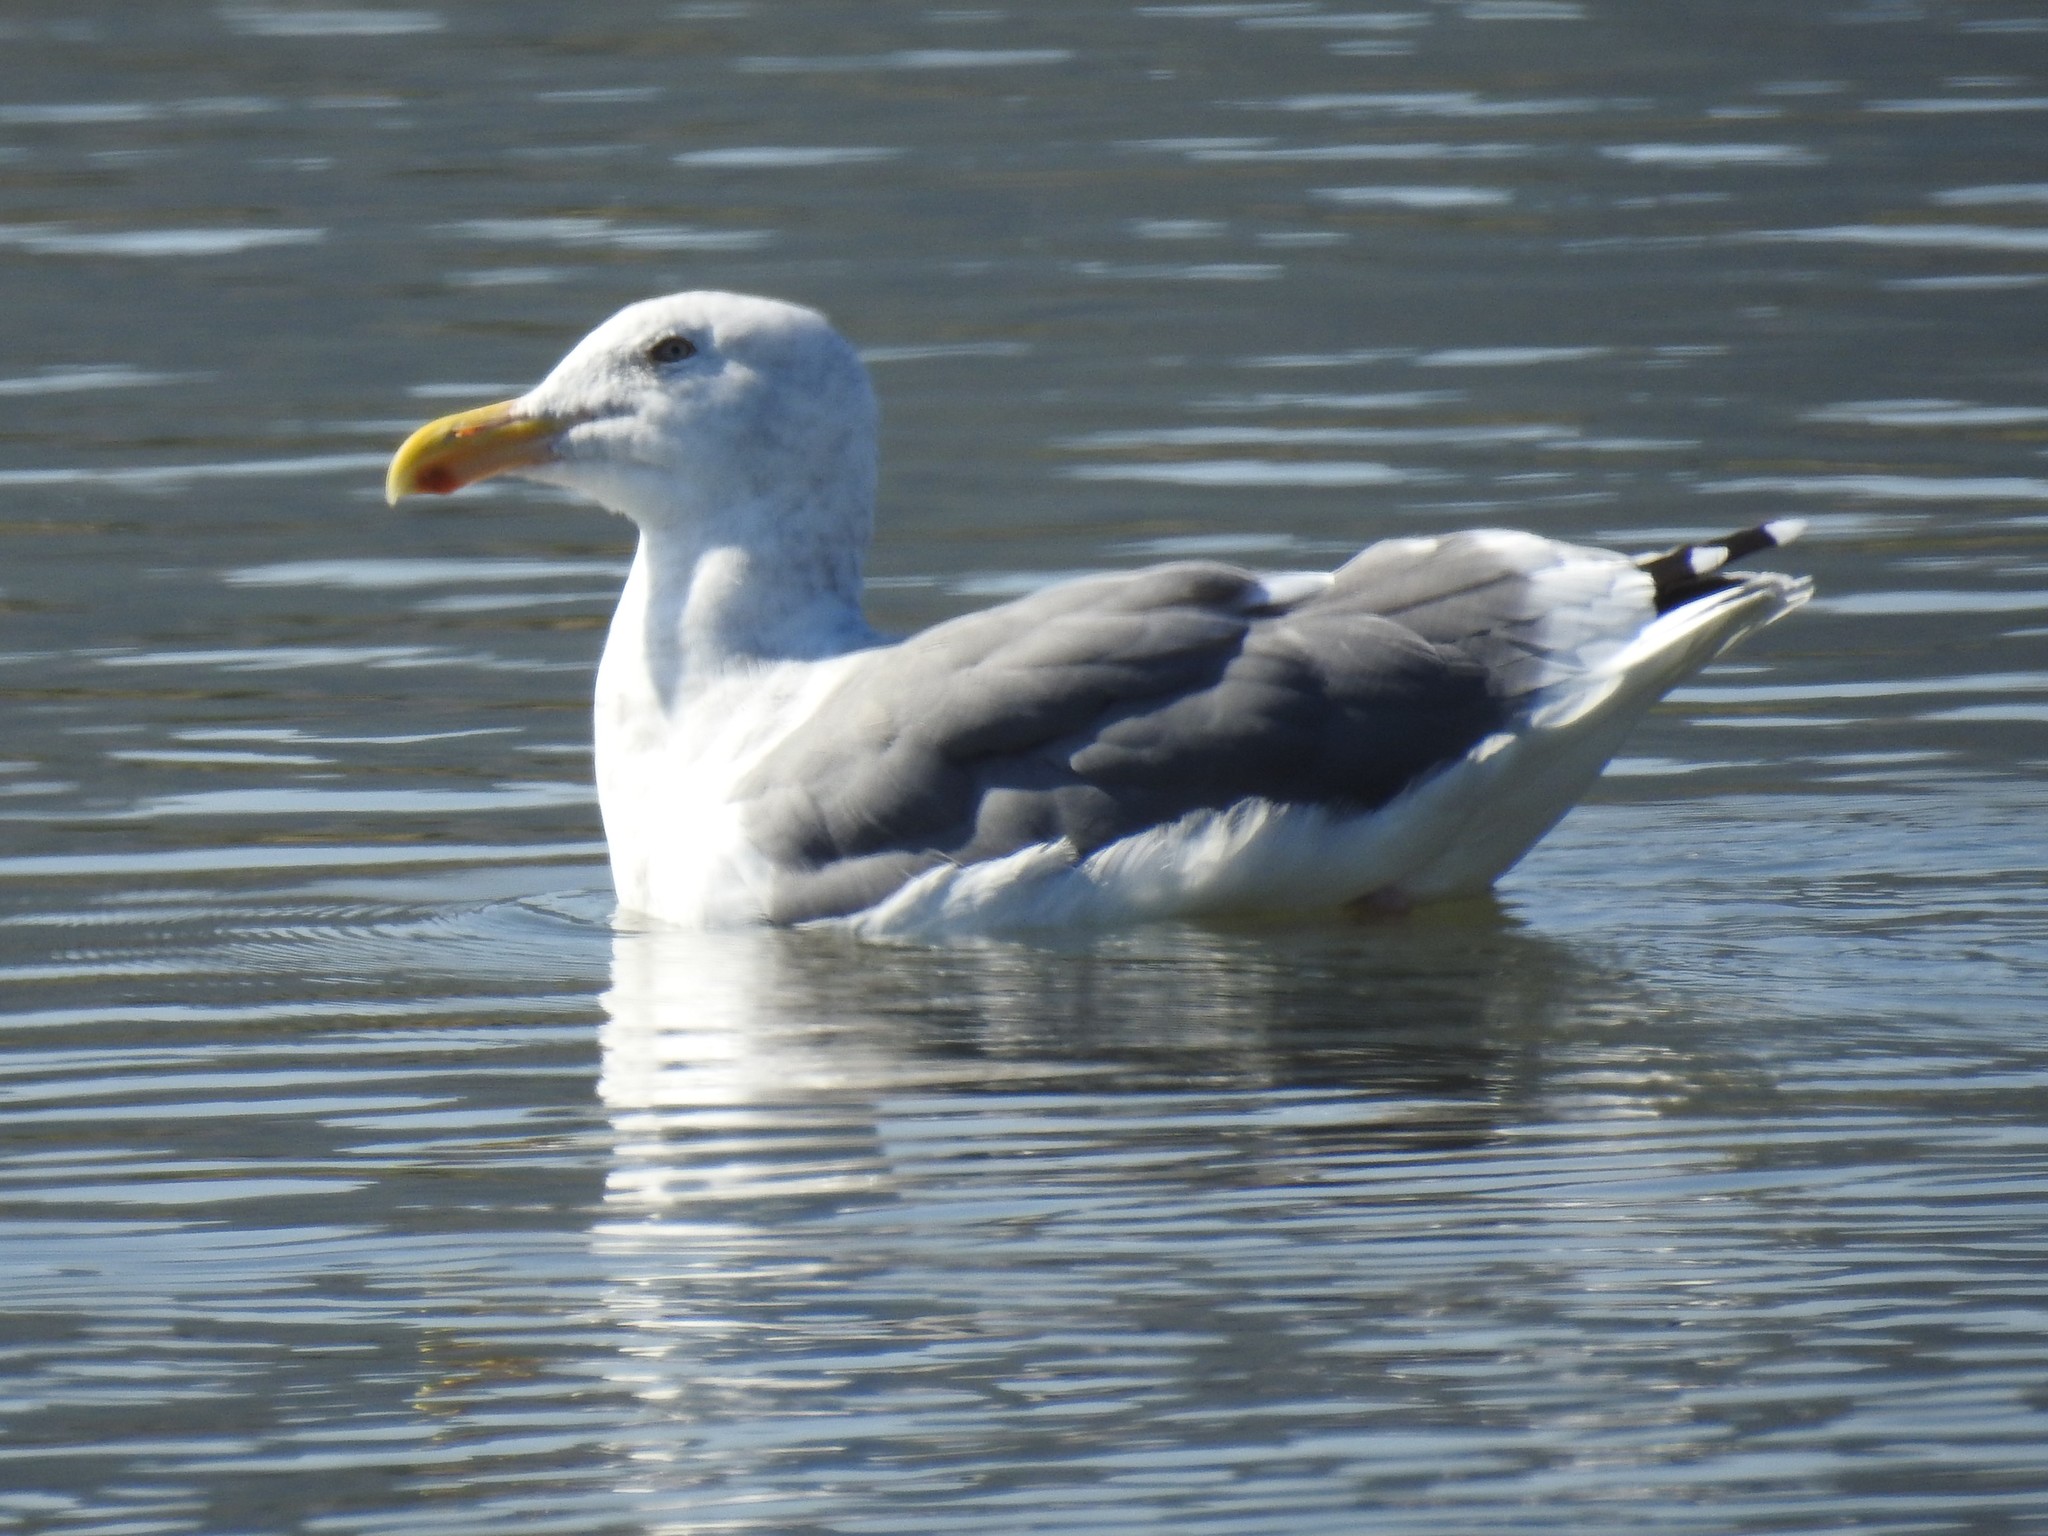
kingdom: Animalia
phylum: Chordata
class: Aves
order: Charadriiformes
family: Laridae
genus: Larus
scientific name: Larus occidentalis
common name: Western gull
